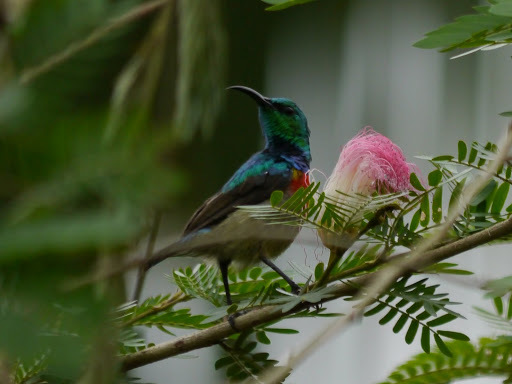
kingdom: Animalia
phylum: Chordata
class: Aves
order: Passeriformes
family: Nectariniidae
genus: Cinnyris
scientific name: Cinnyris
